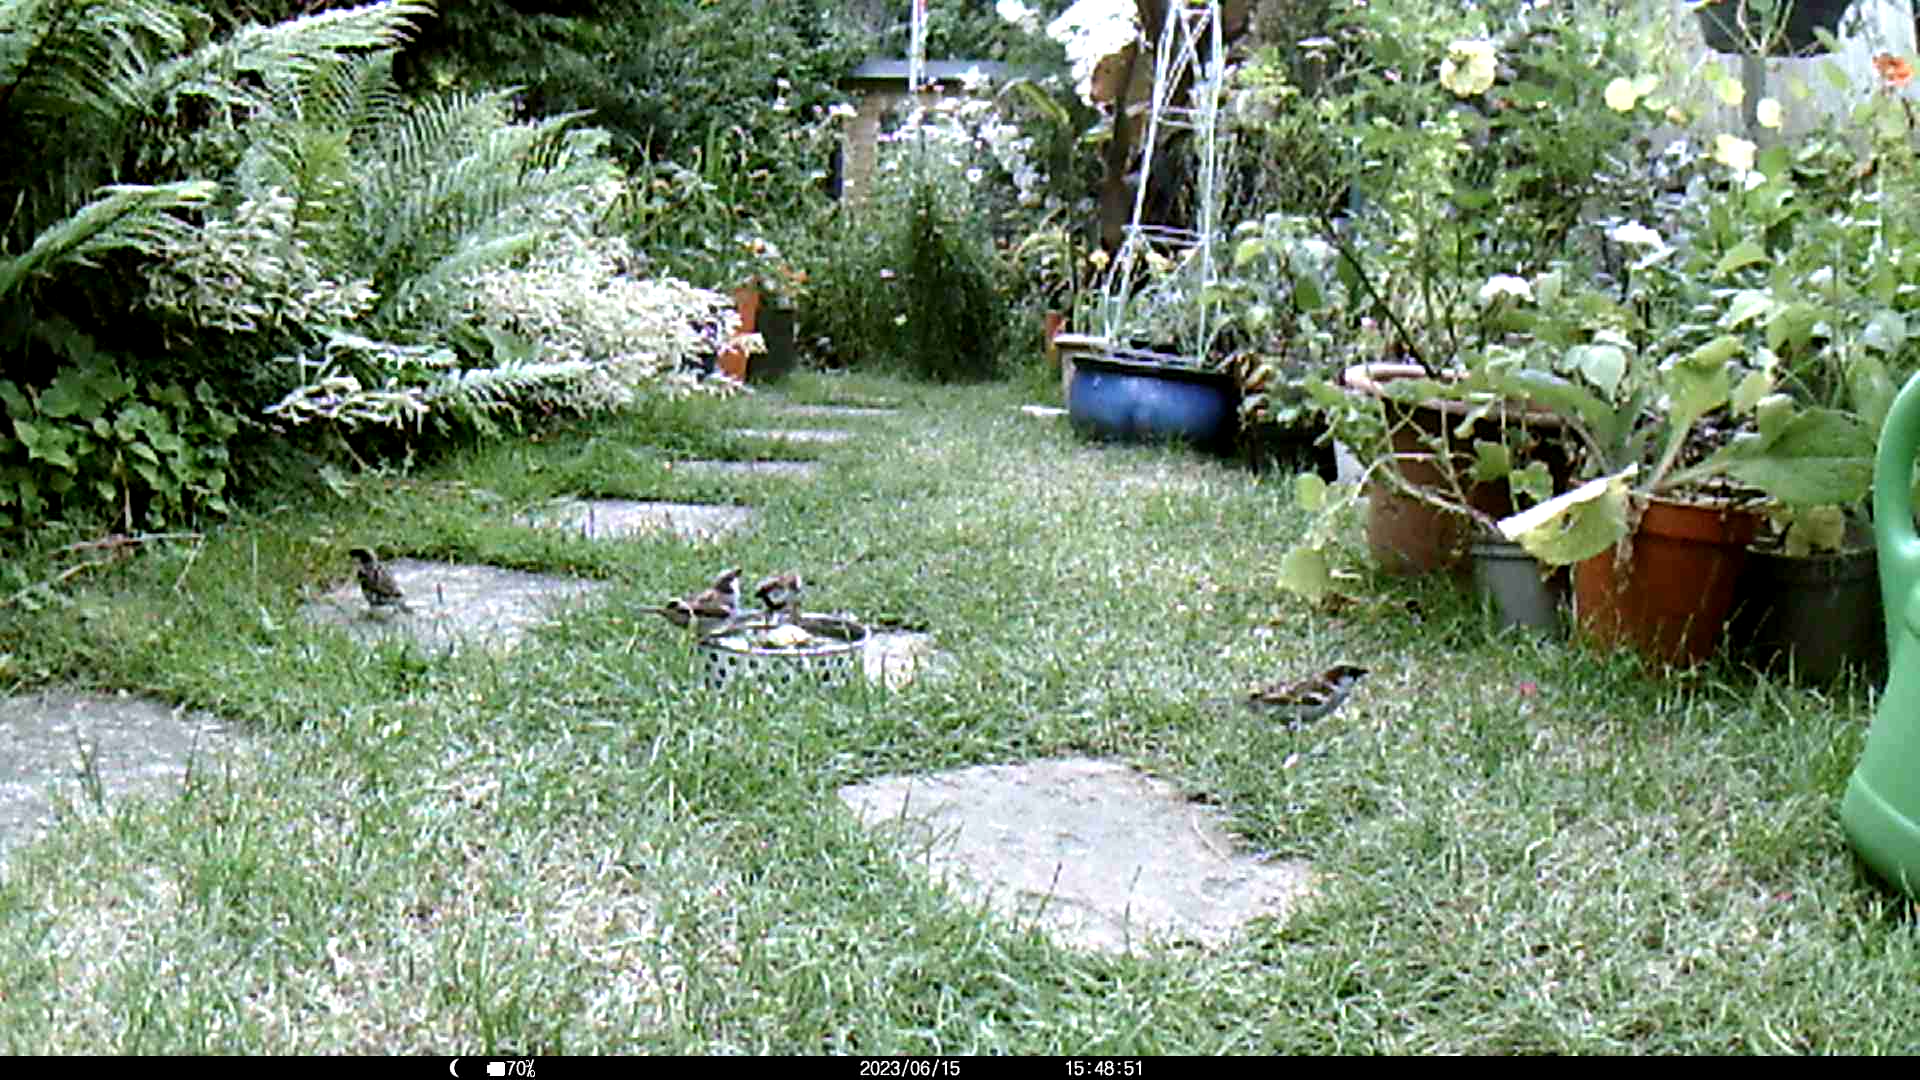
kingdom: Animalia
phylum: Chordata
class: Aves
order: Passeriformes
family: Passeridae
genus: Passer
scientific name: Passer domesticus
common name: House sparrow
